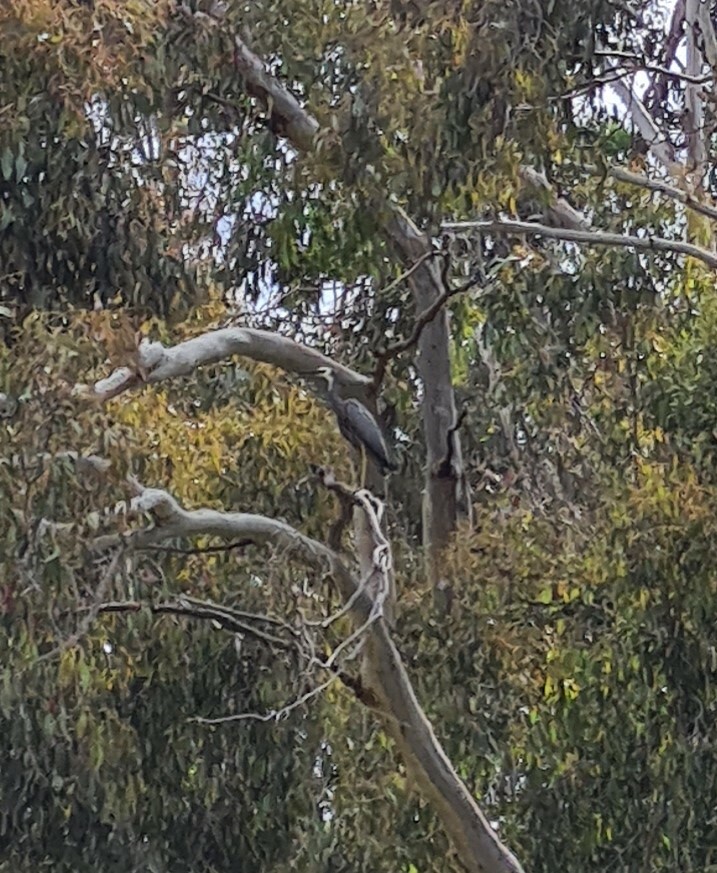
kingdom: Animalia
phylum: Chordata
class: Aves
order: Pelecaniformes
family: Ardeidae
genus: Egretta
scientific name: Egretta novaehollandiae
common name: White-faced heron
